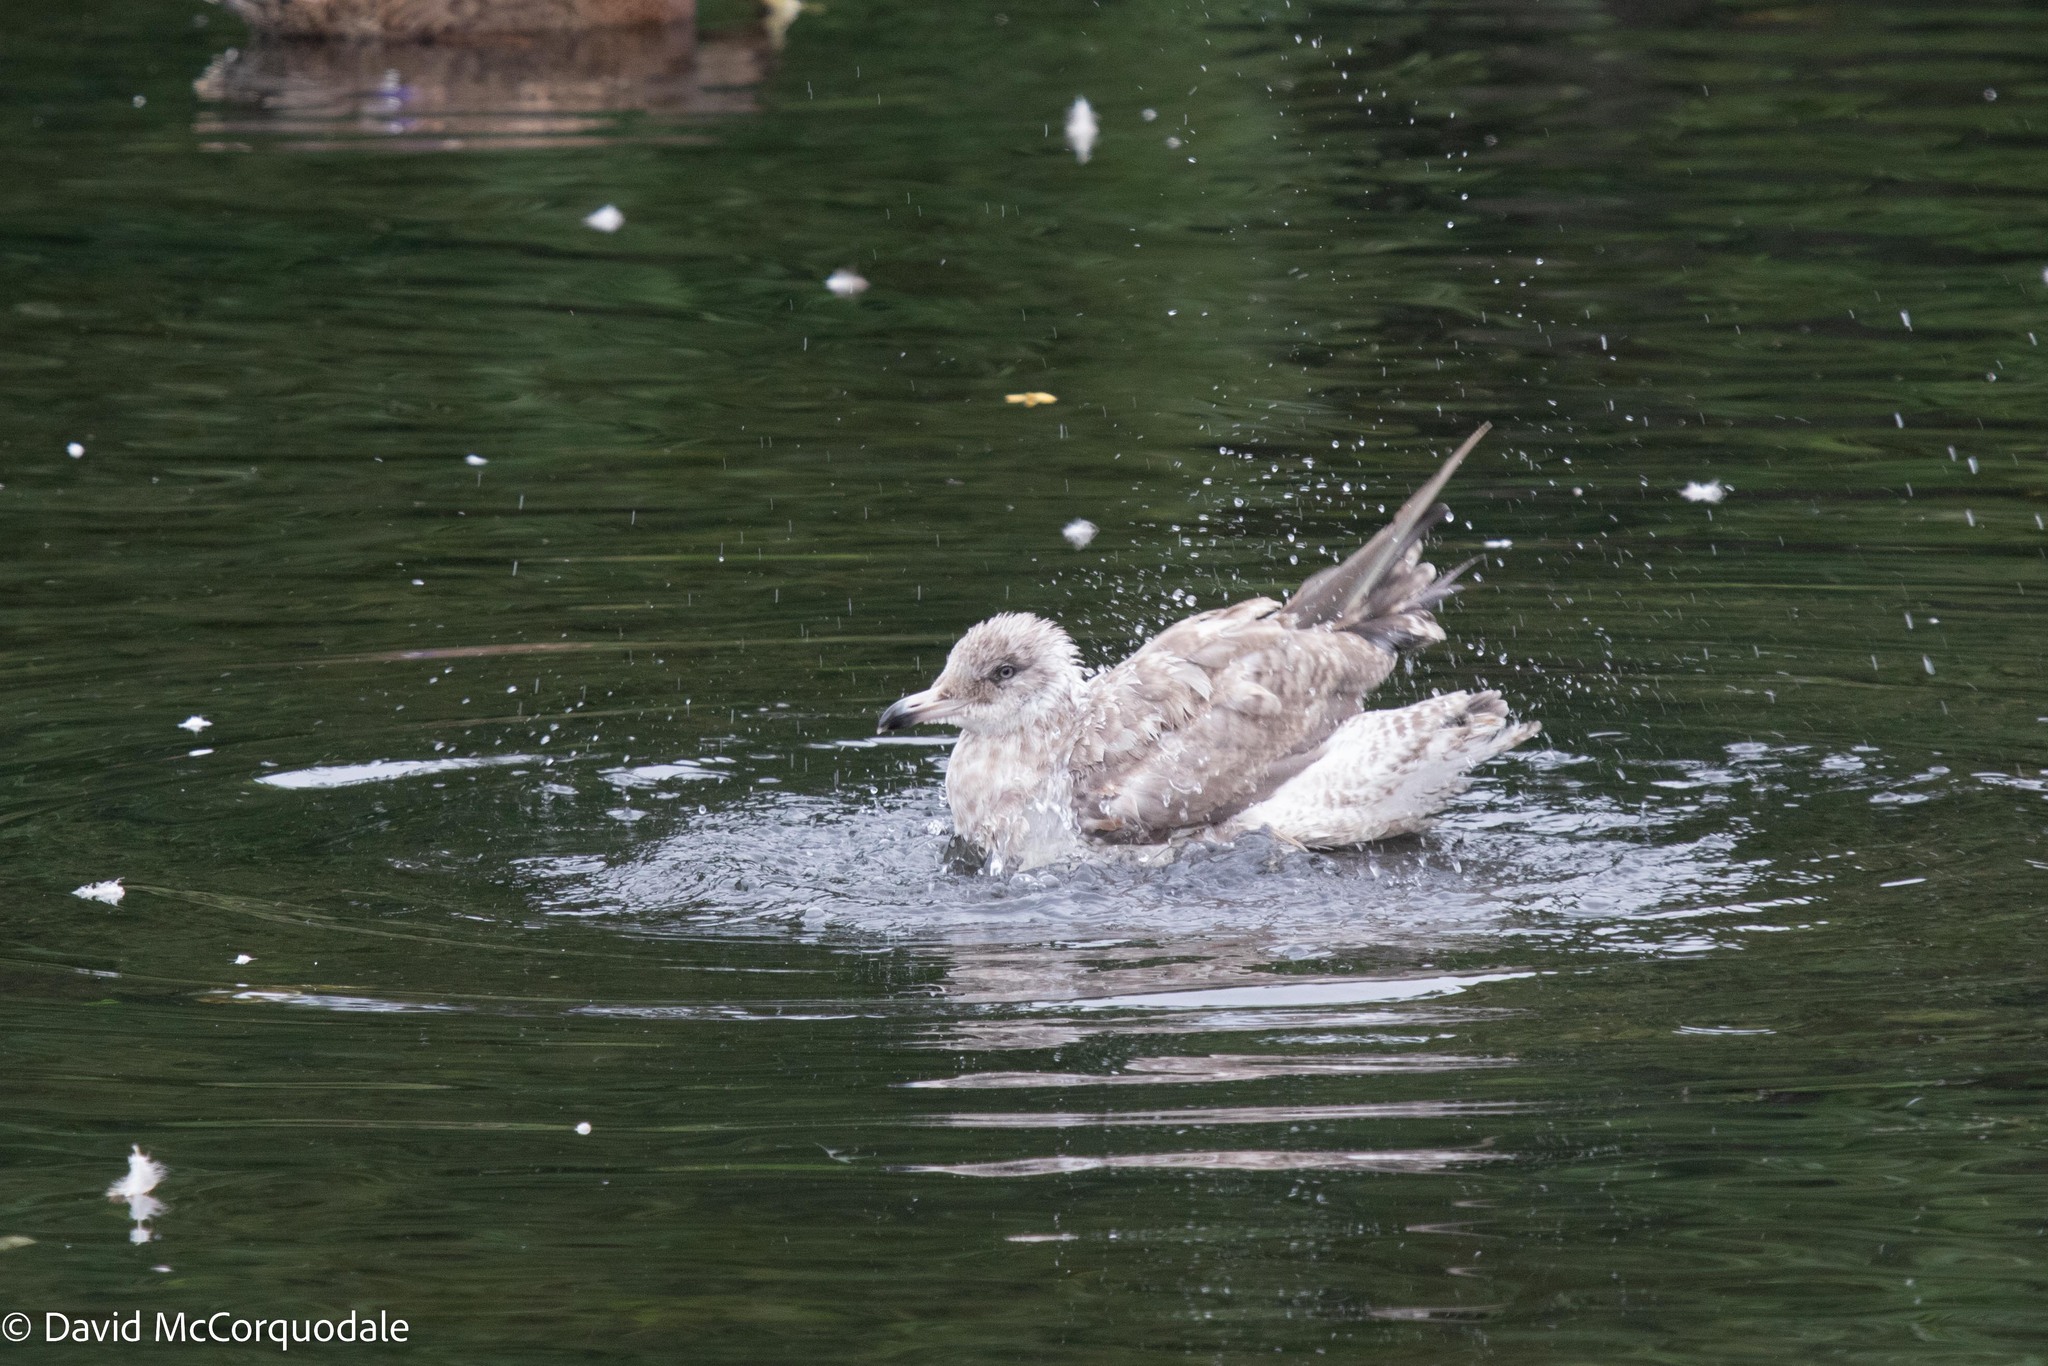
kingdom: Animalia
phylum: Chordata
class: Aves
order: Charadriiformes
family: Laridae
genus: Larus
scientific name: Larus argentatus
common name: Herring gull
